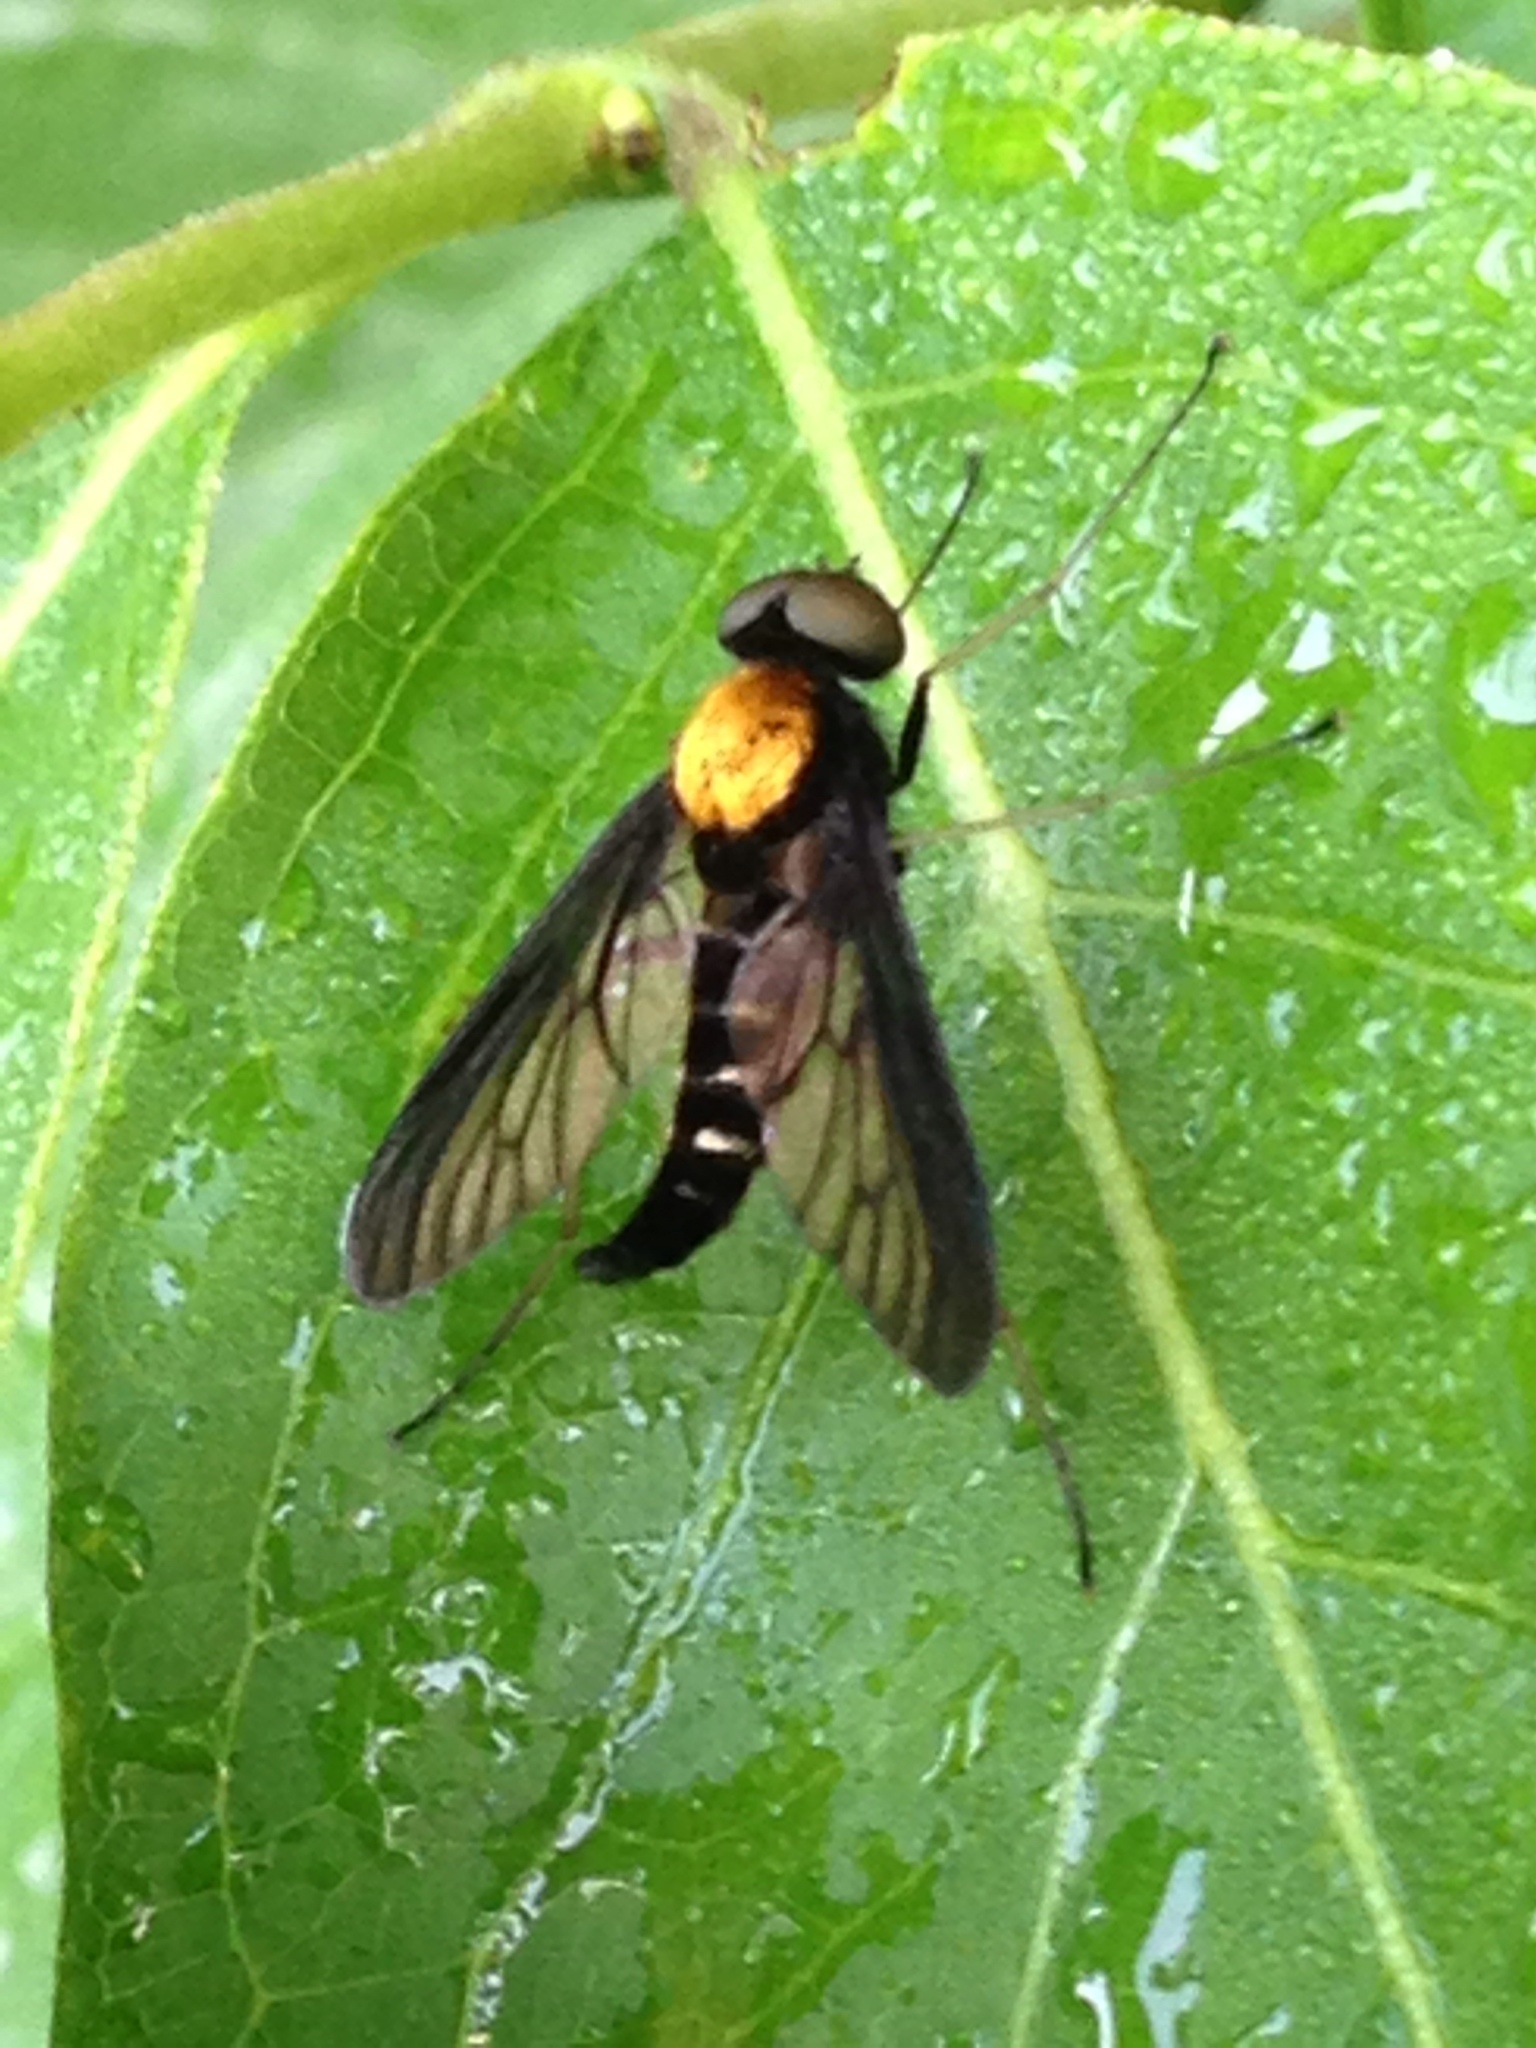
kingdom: Animalia
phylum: Arthropoda
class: Insecta
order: Diptera
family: Rhagionidae
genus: Chrysopilus
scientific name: Chrysopilus thoracicus
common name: Golden-backed snipe fly
